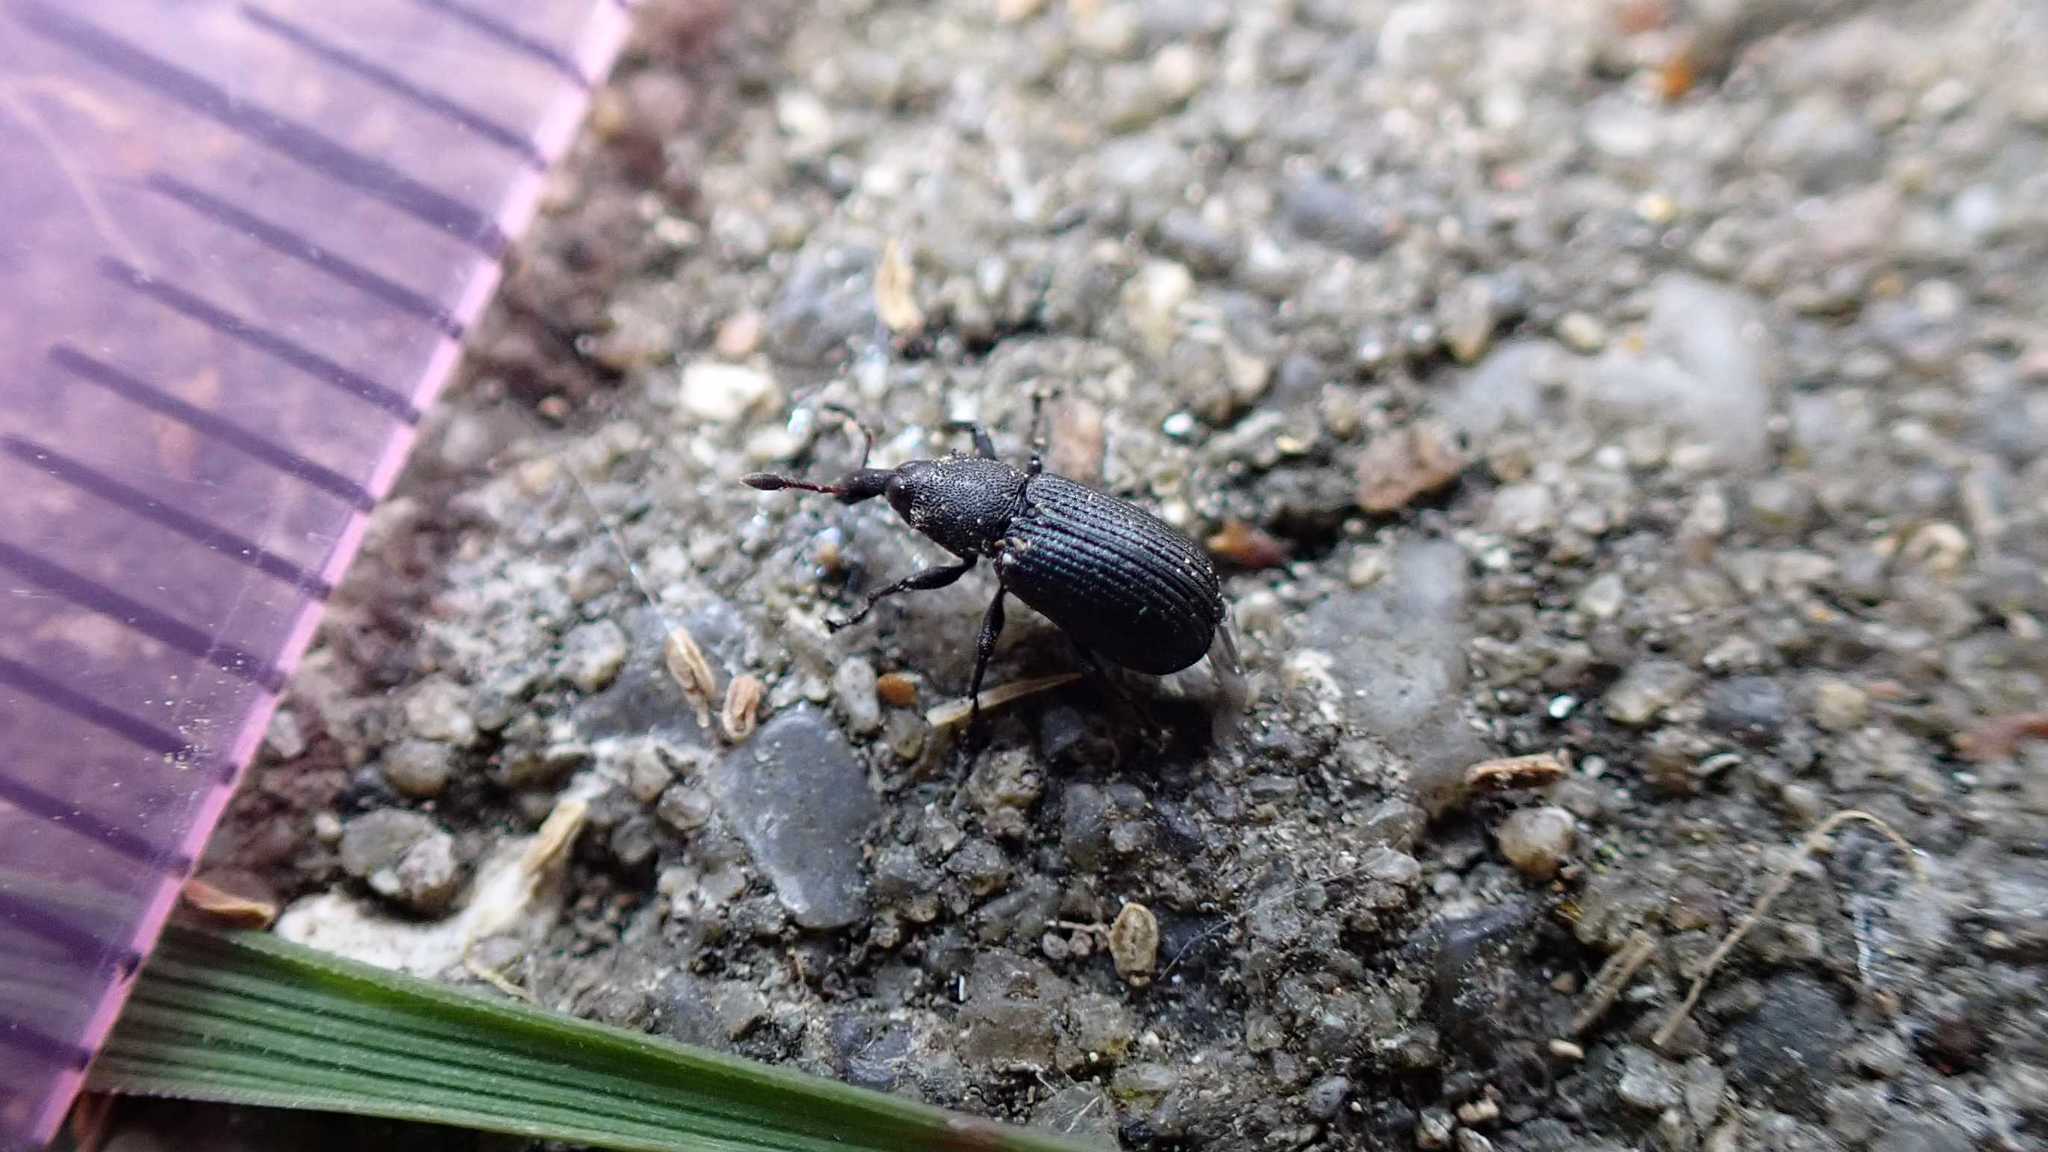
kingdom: Animalia
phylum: Arthropoda
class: Insecta
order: Coleoptera
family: Curculionidae
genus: Magdalis
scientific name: Magdalis armigera
